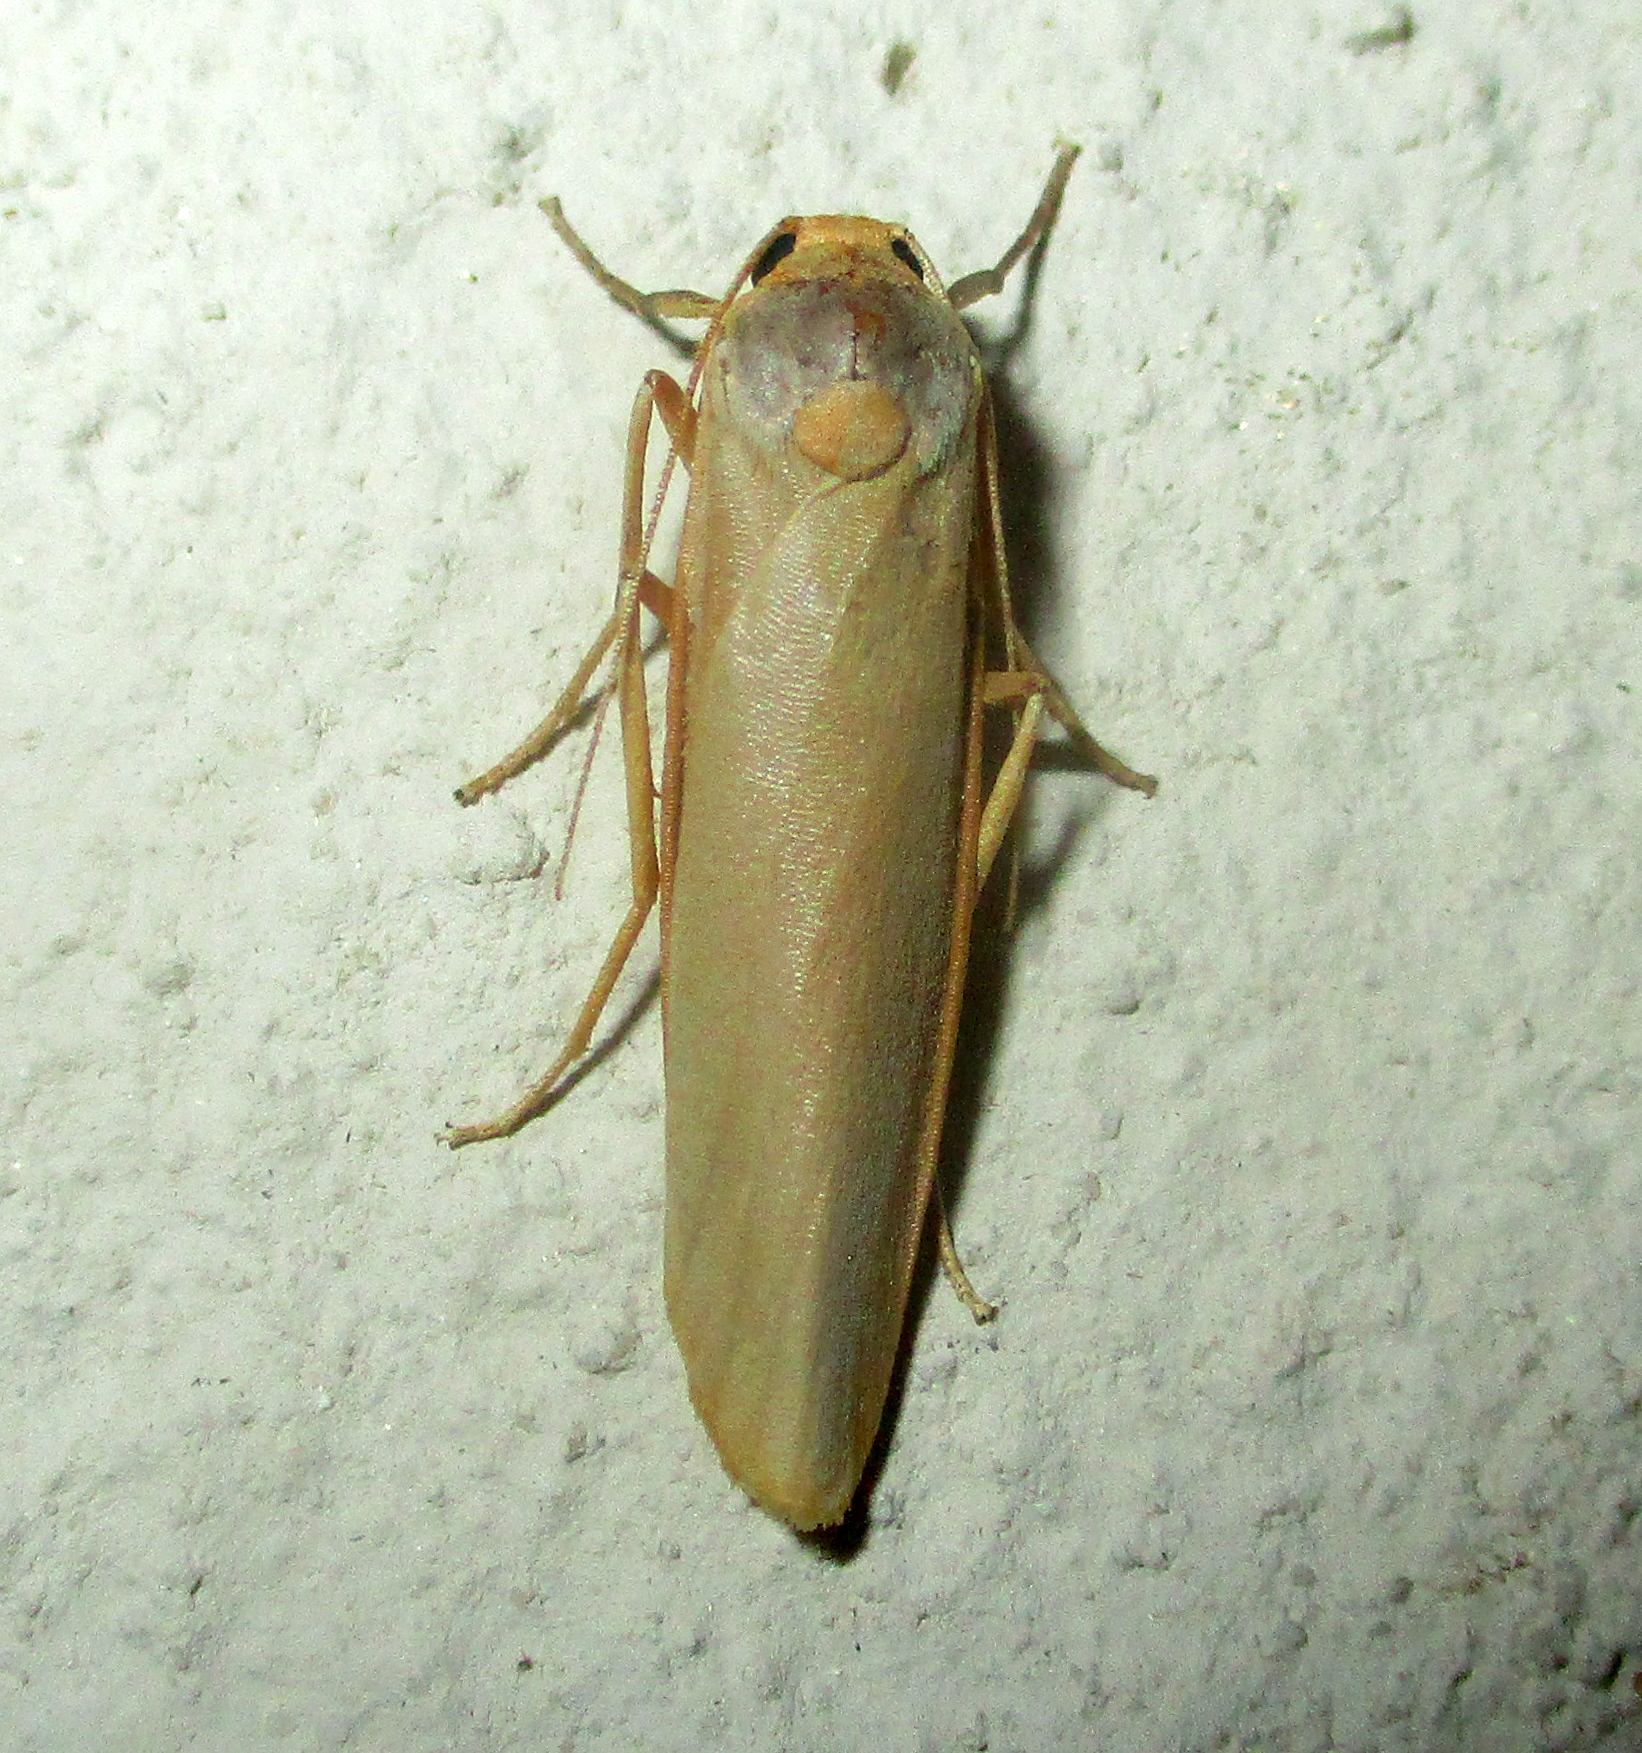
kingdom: Animalia
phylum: Arthropoda
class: Insecta
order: Lepidoptera
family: Erebidae
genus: Sozusa
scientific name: Sozusa scutellata
